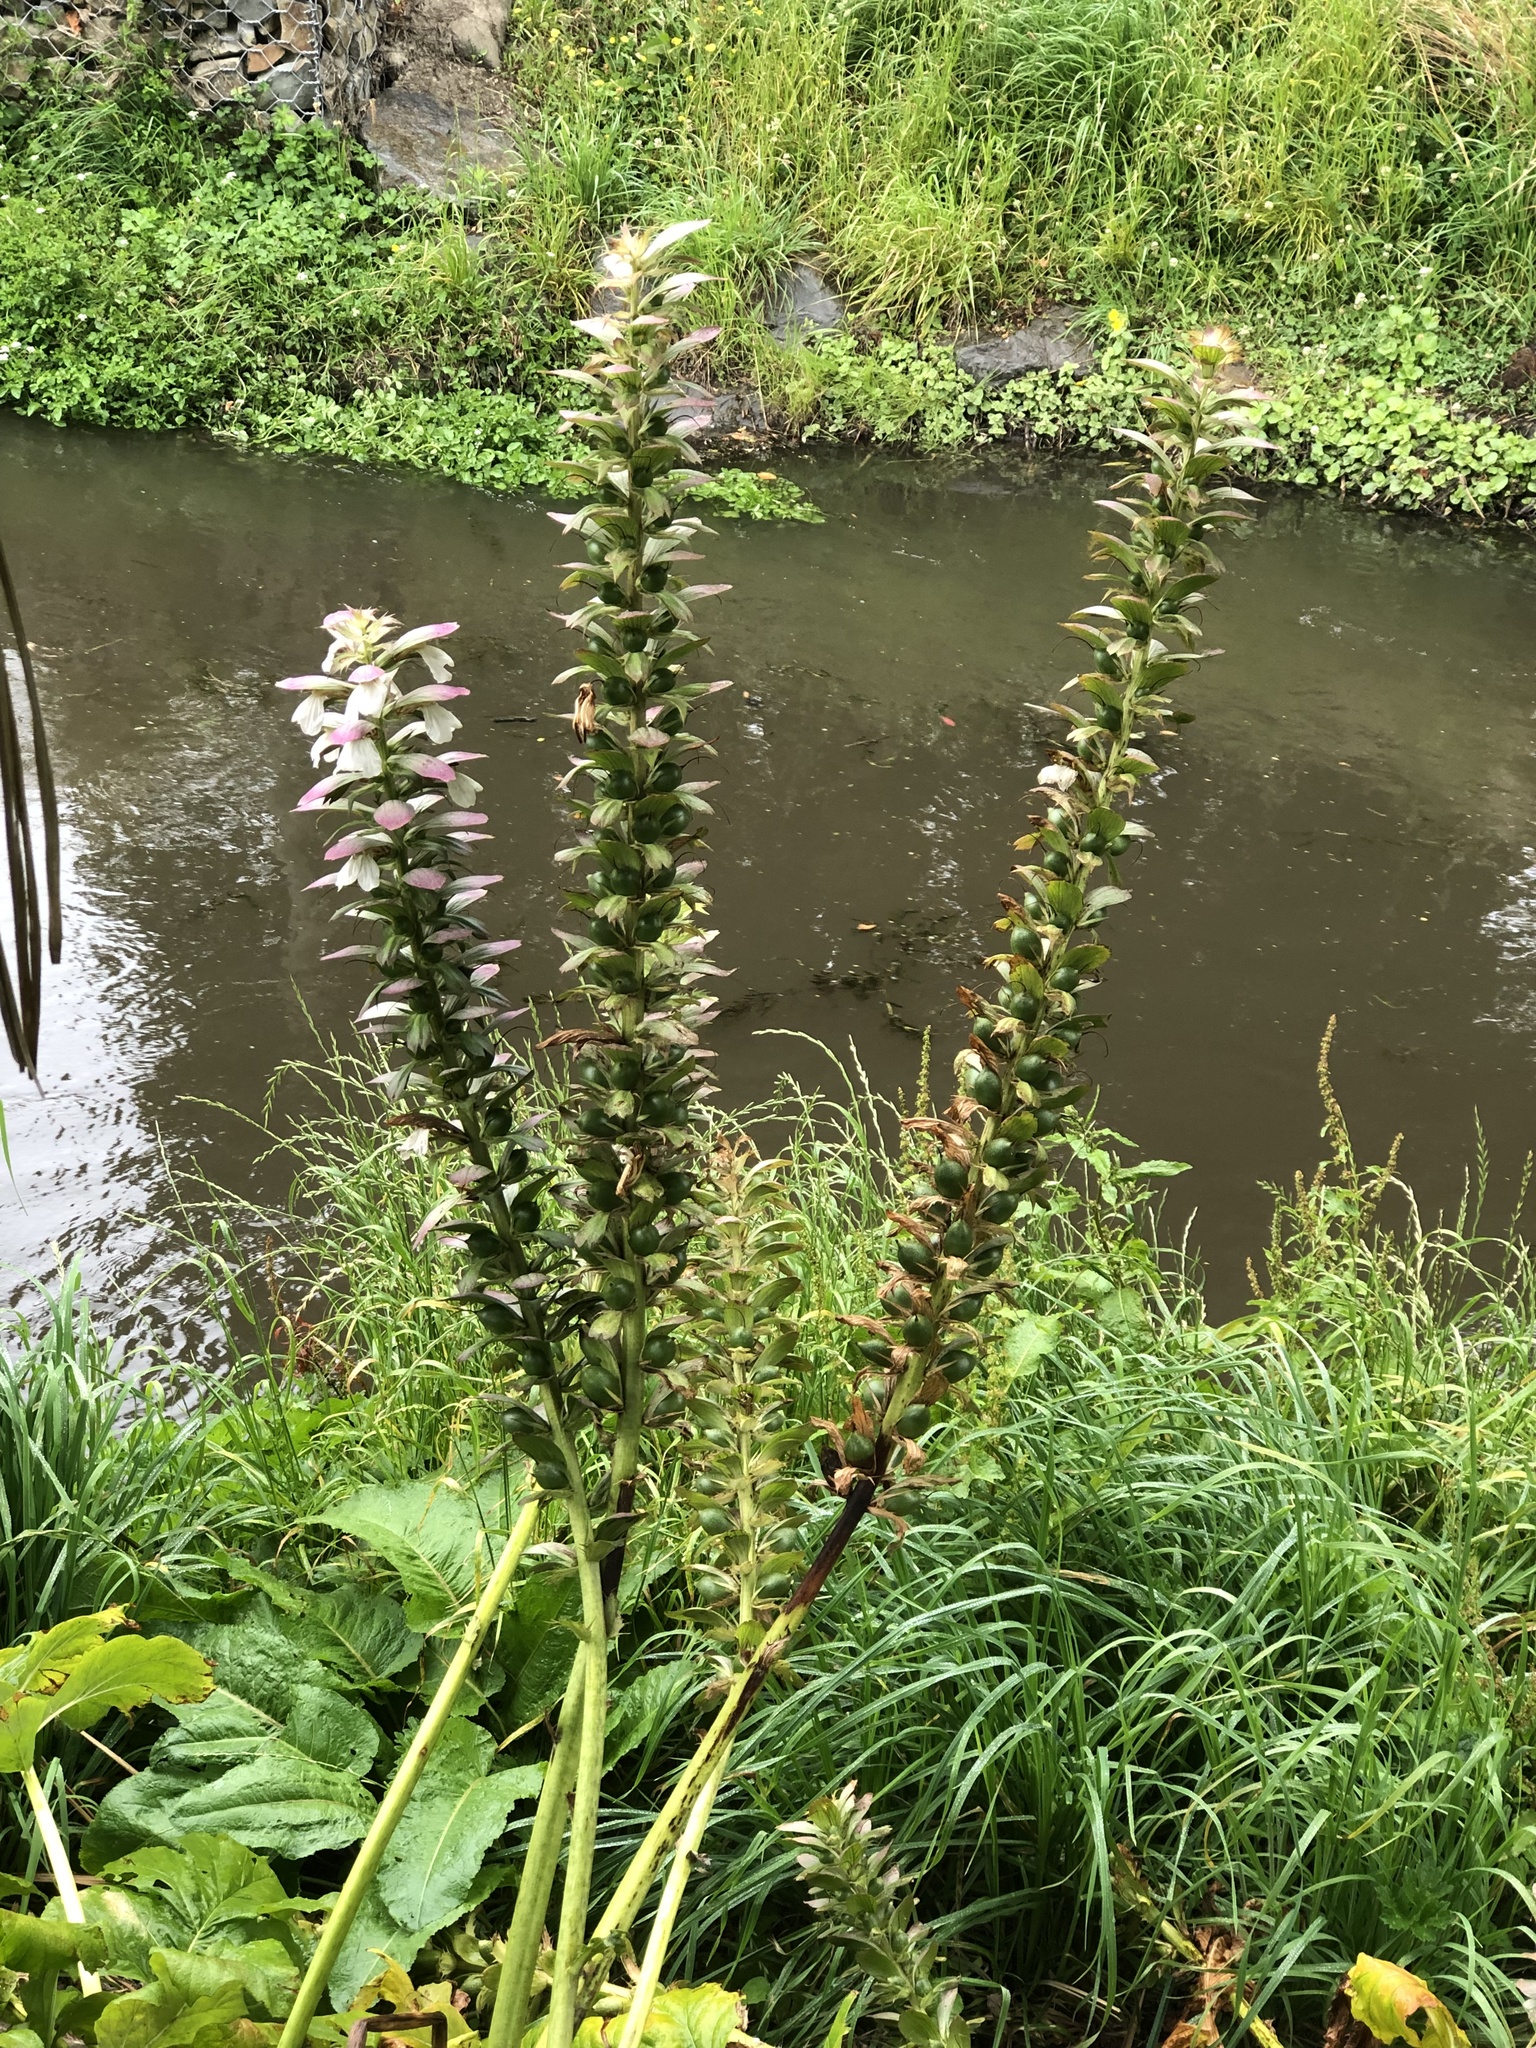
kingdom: Plantae
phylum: Tracheophyta
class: Magnoliopsida
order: Lamiales
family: Acanthaceae
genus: Acanthus
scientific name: Acanthus mollis
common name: Bear's-breech
